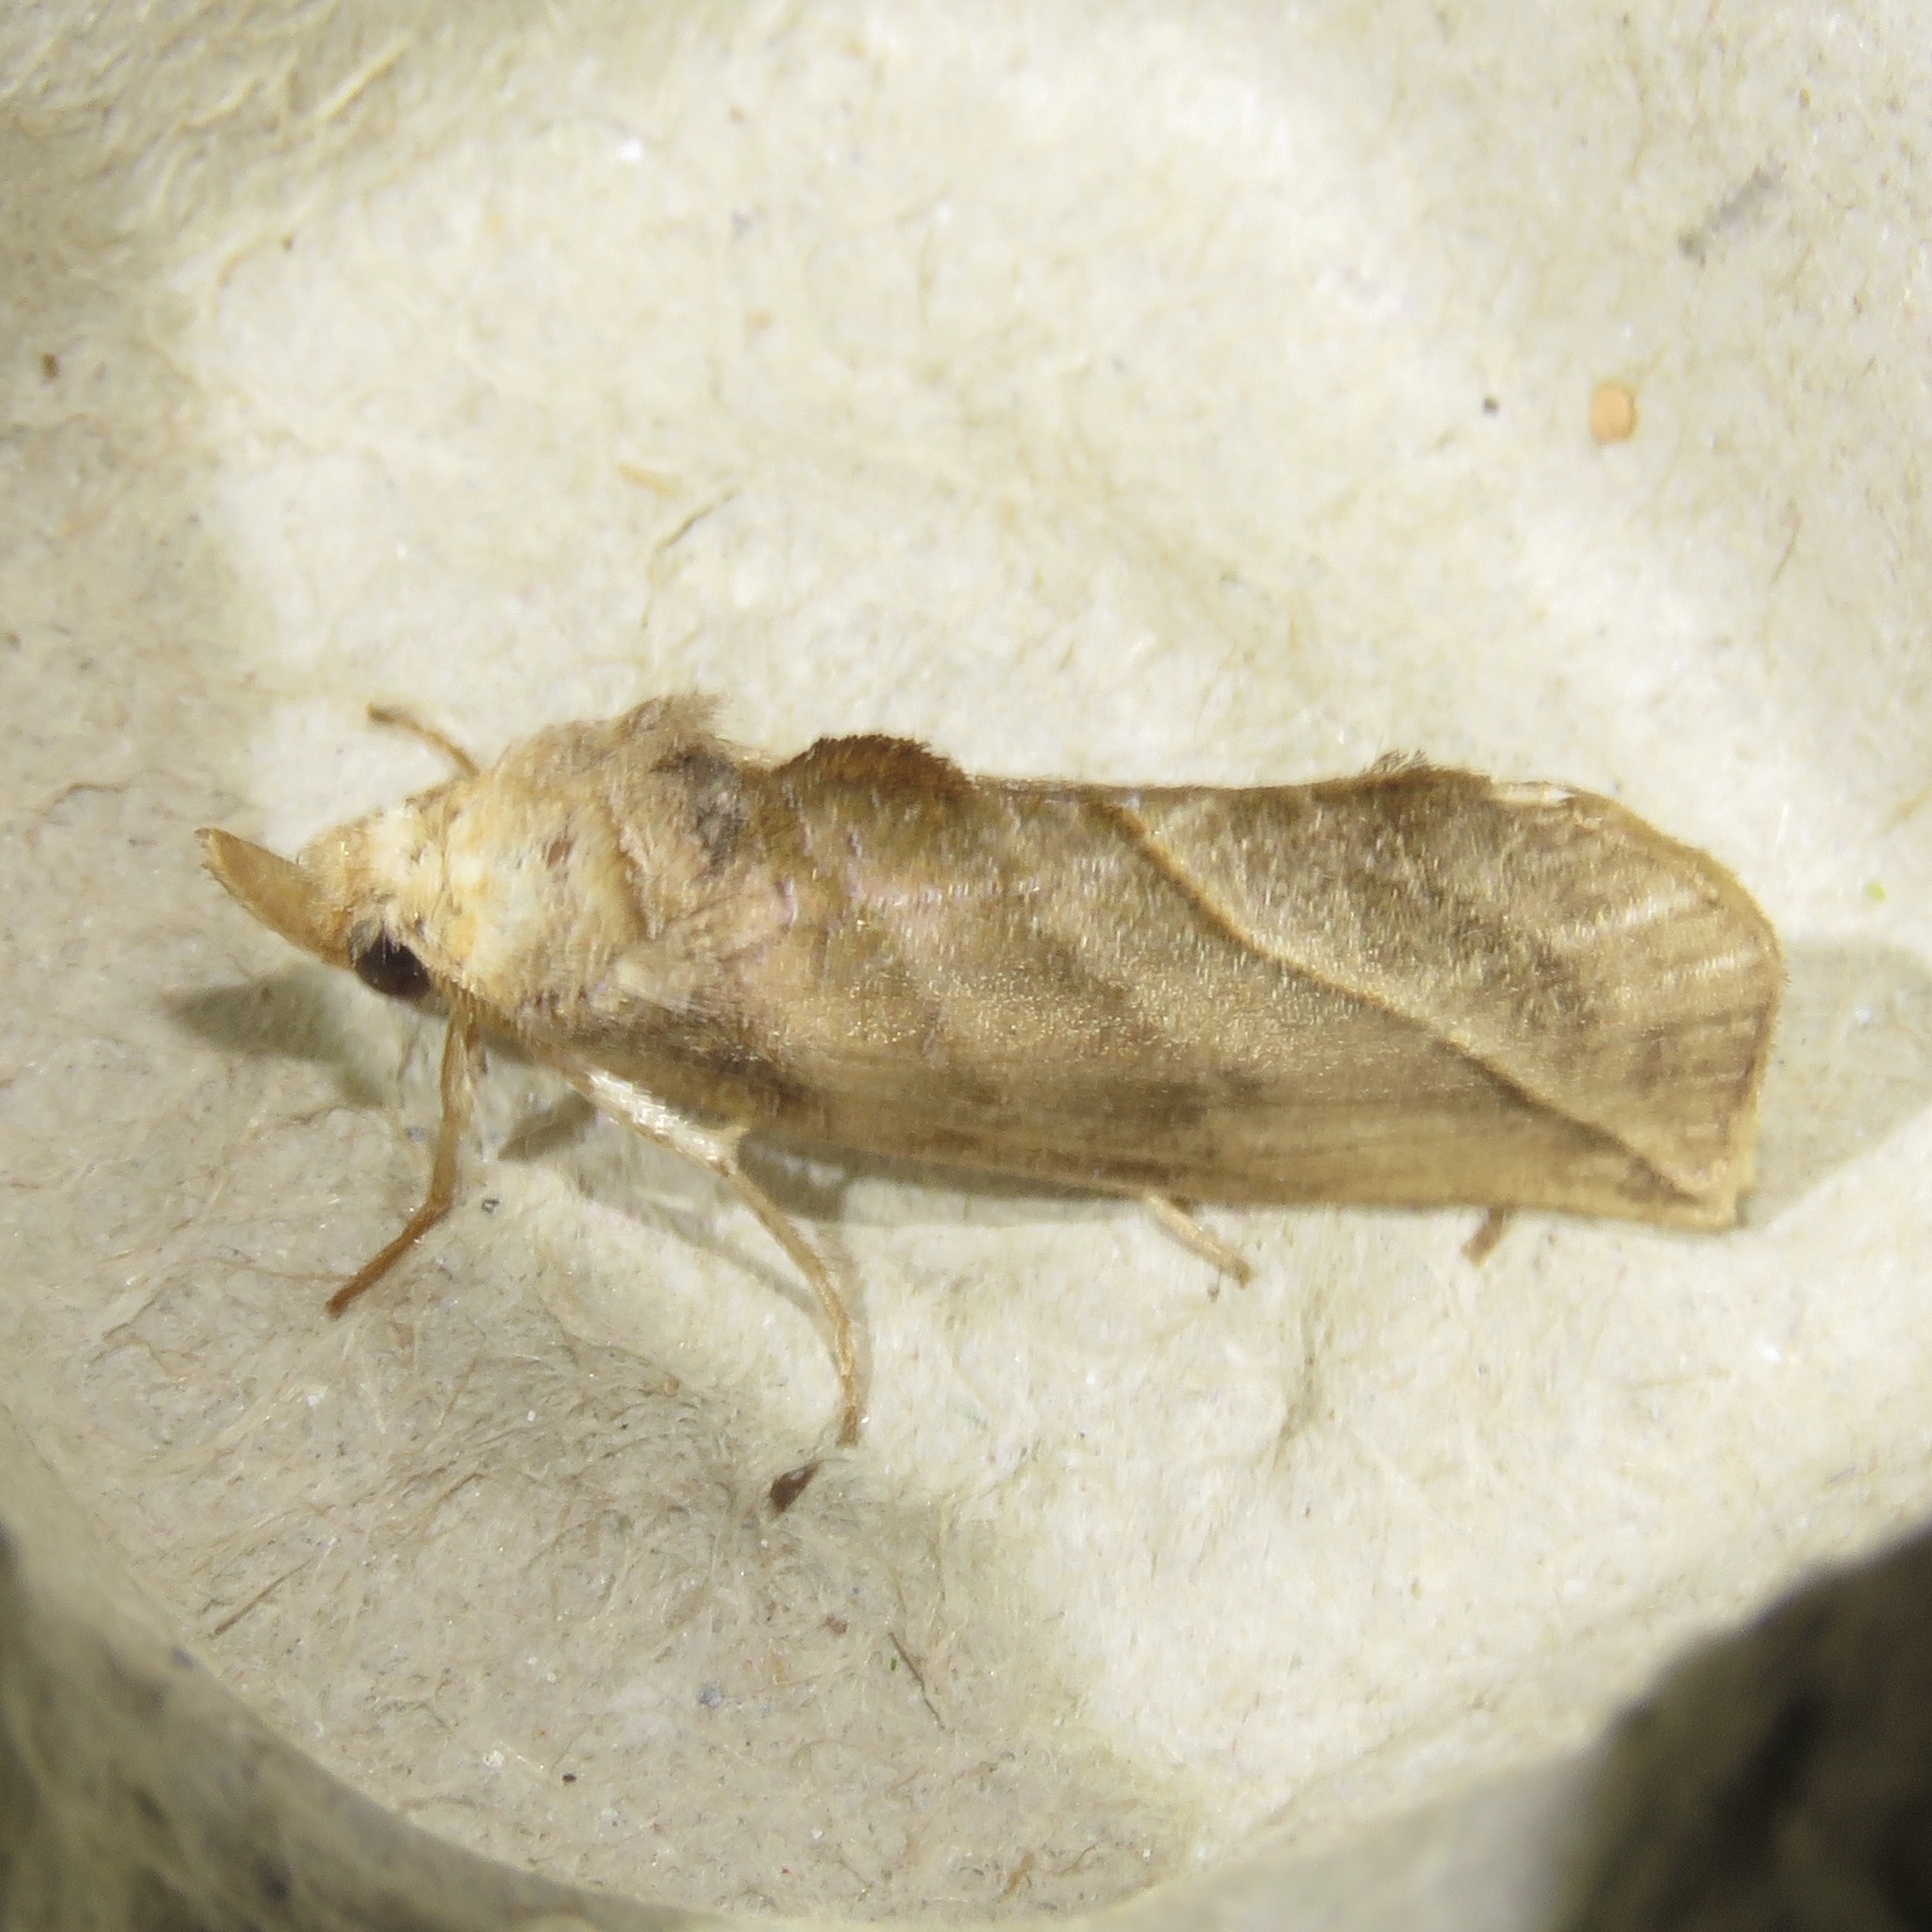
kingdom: Animalia
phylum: Arthropoda
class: Insecta
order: Lepidoptera
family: Erebidae
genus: Calyptra
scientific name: Calyptra canadensis
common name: Canadian owlet
